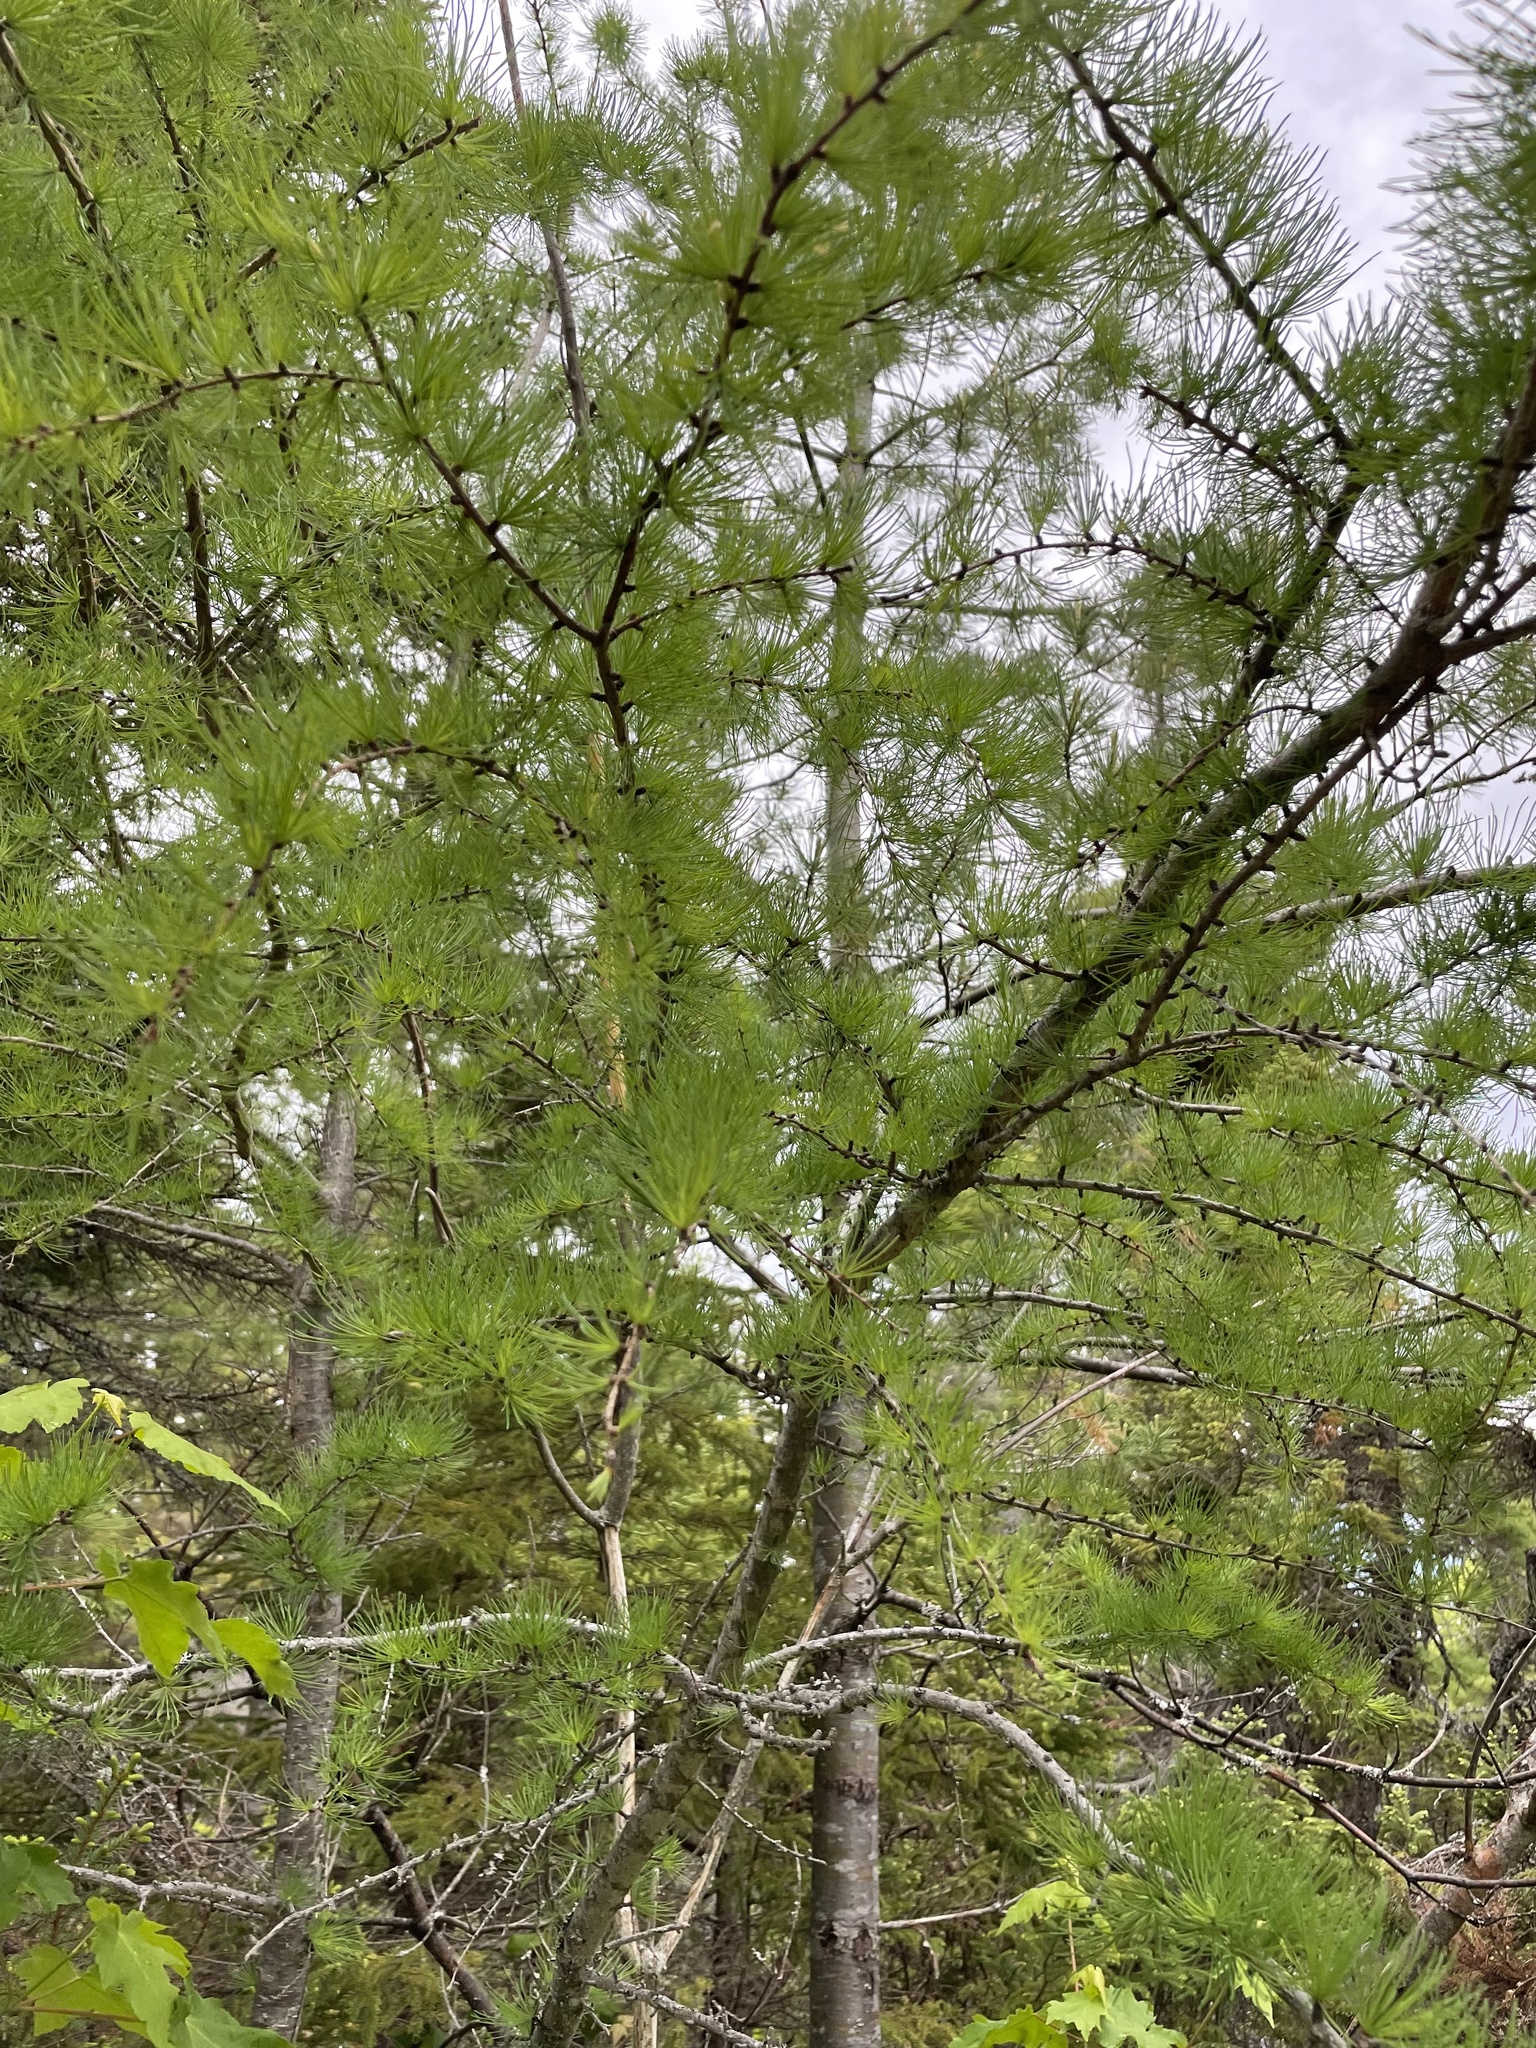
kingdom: Plantae
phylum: Tracheophyta
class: Pinopsida
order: Pinales
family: Pinaceae
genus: Larix
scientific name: Larix laricina
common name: American larch
